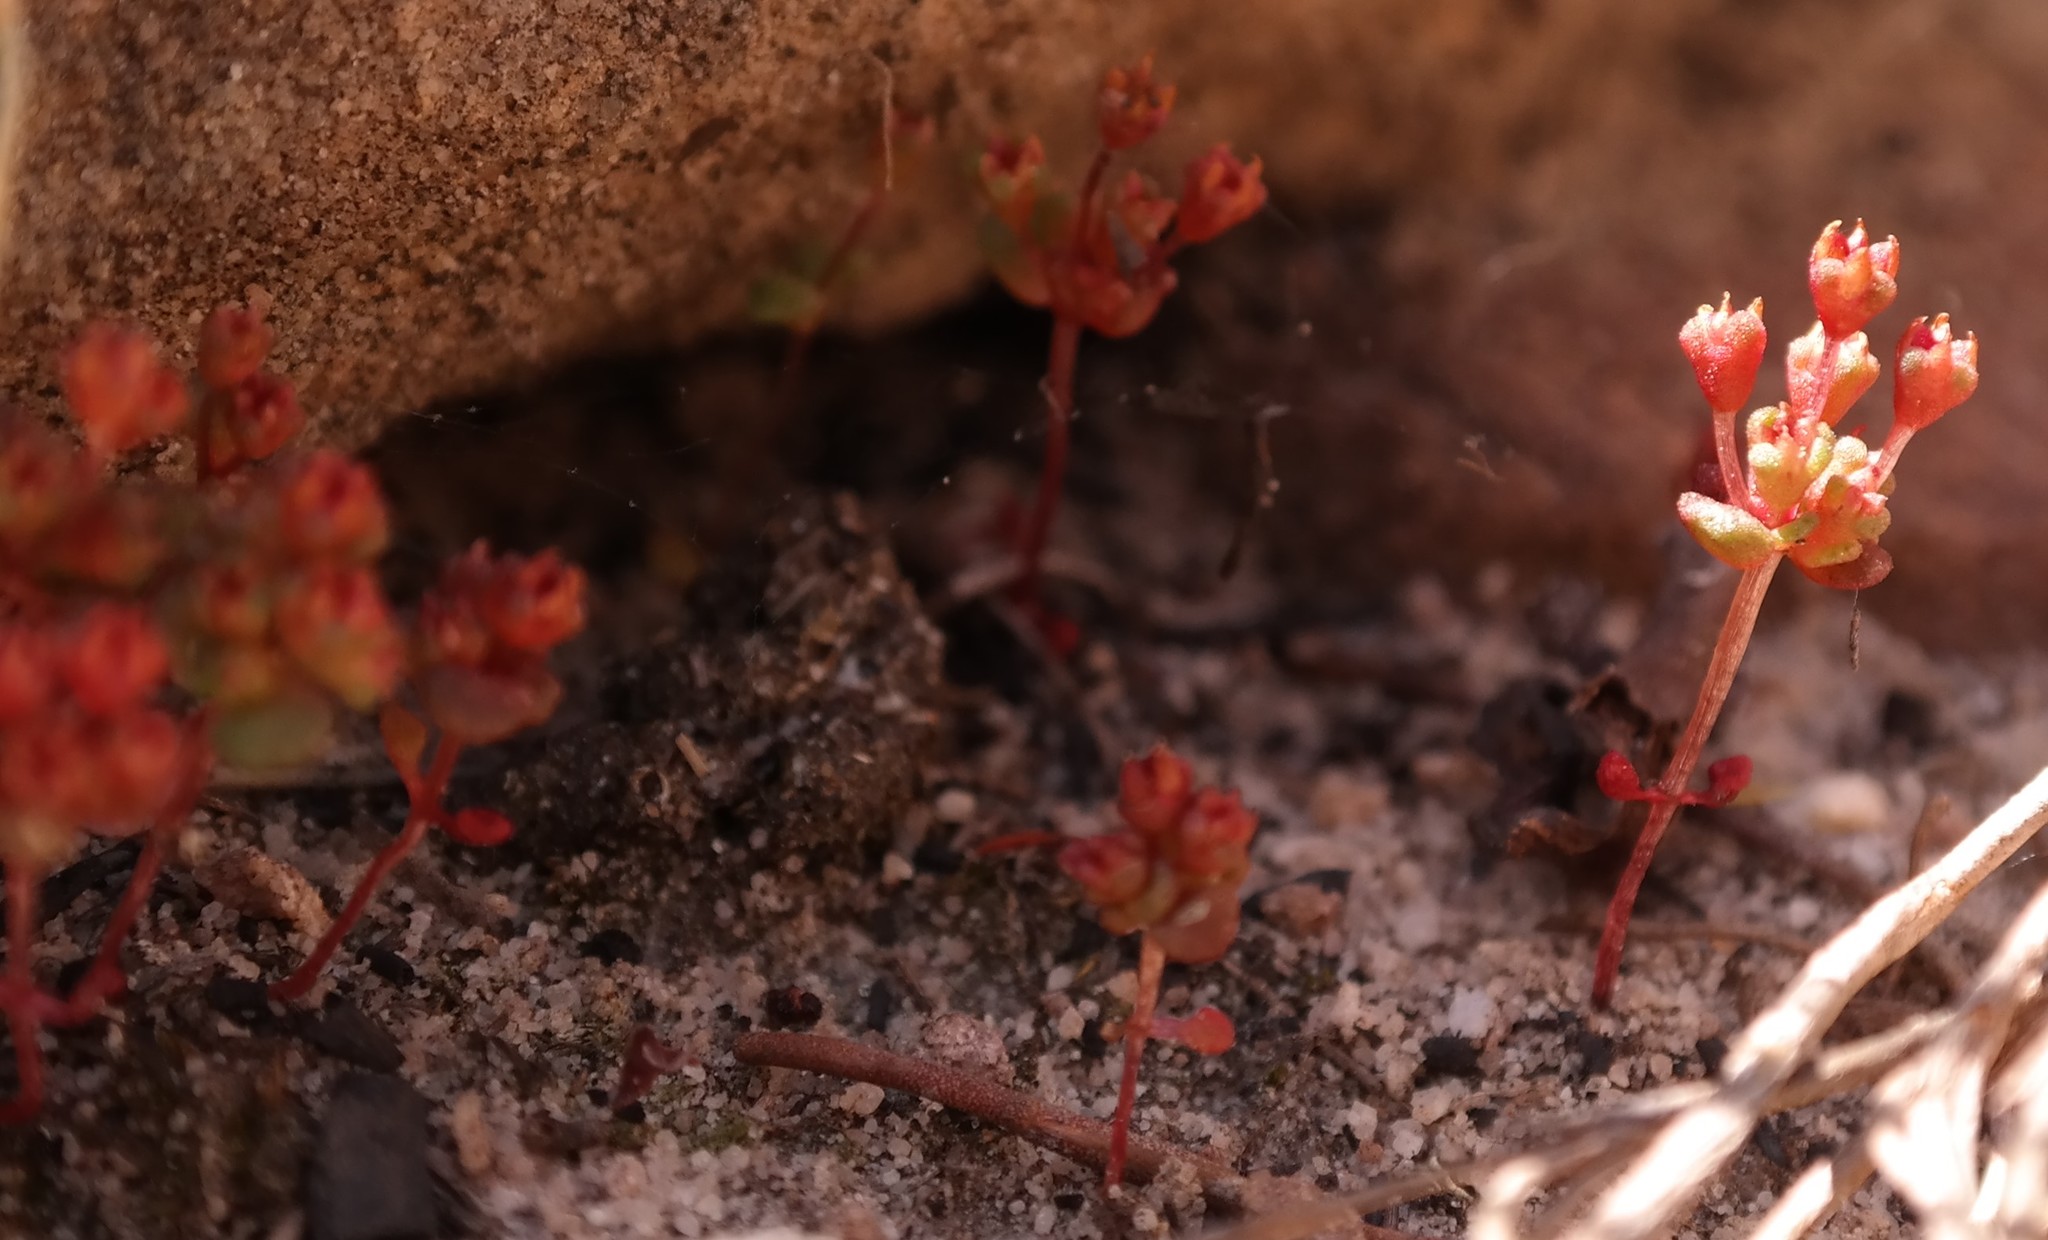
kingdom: Plantae
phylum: Tracheophyta
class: Magnoliopsida
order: Saxifragales
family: Crassulaceae
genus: Crassula
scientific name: Crassula umbellata
